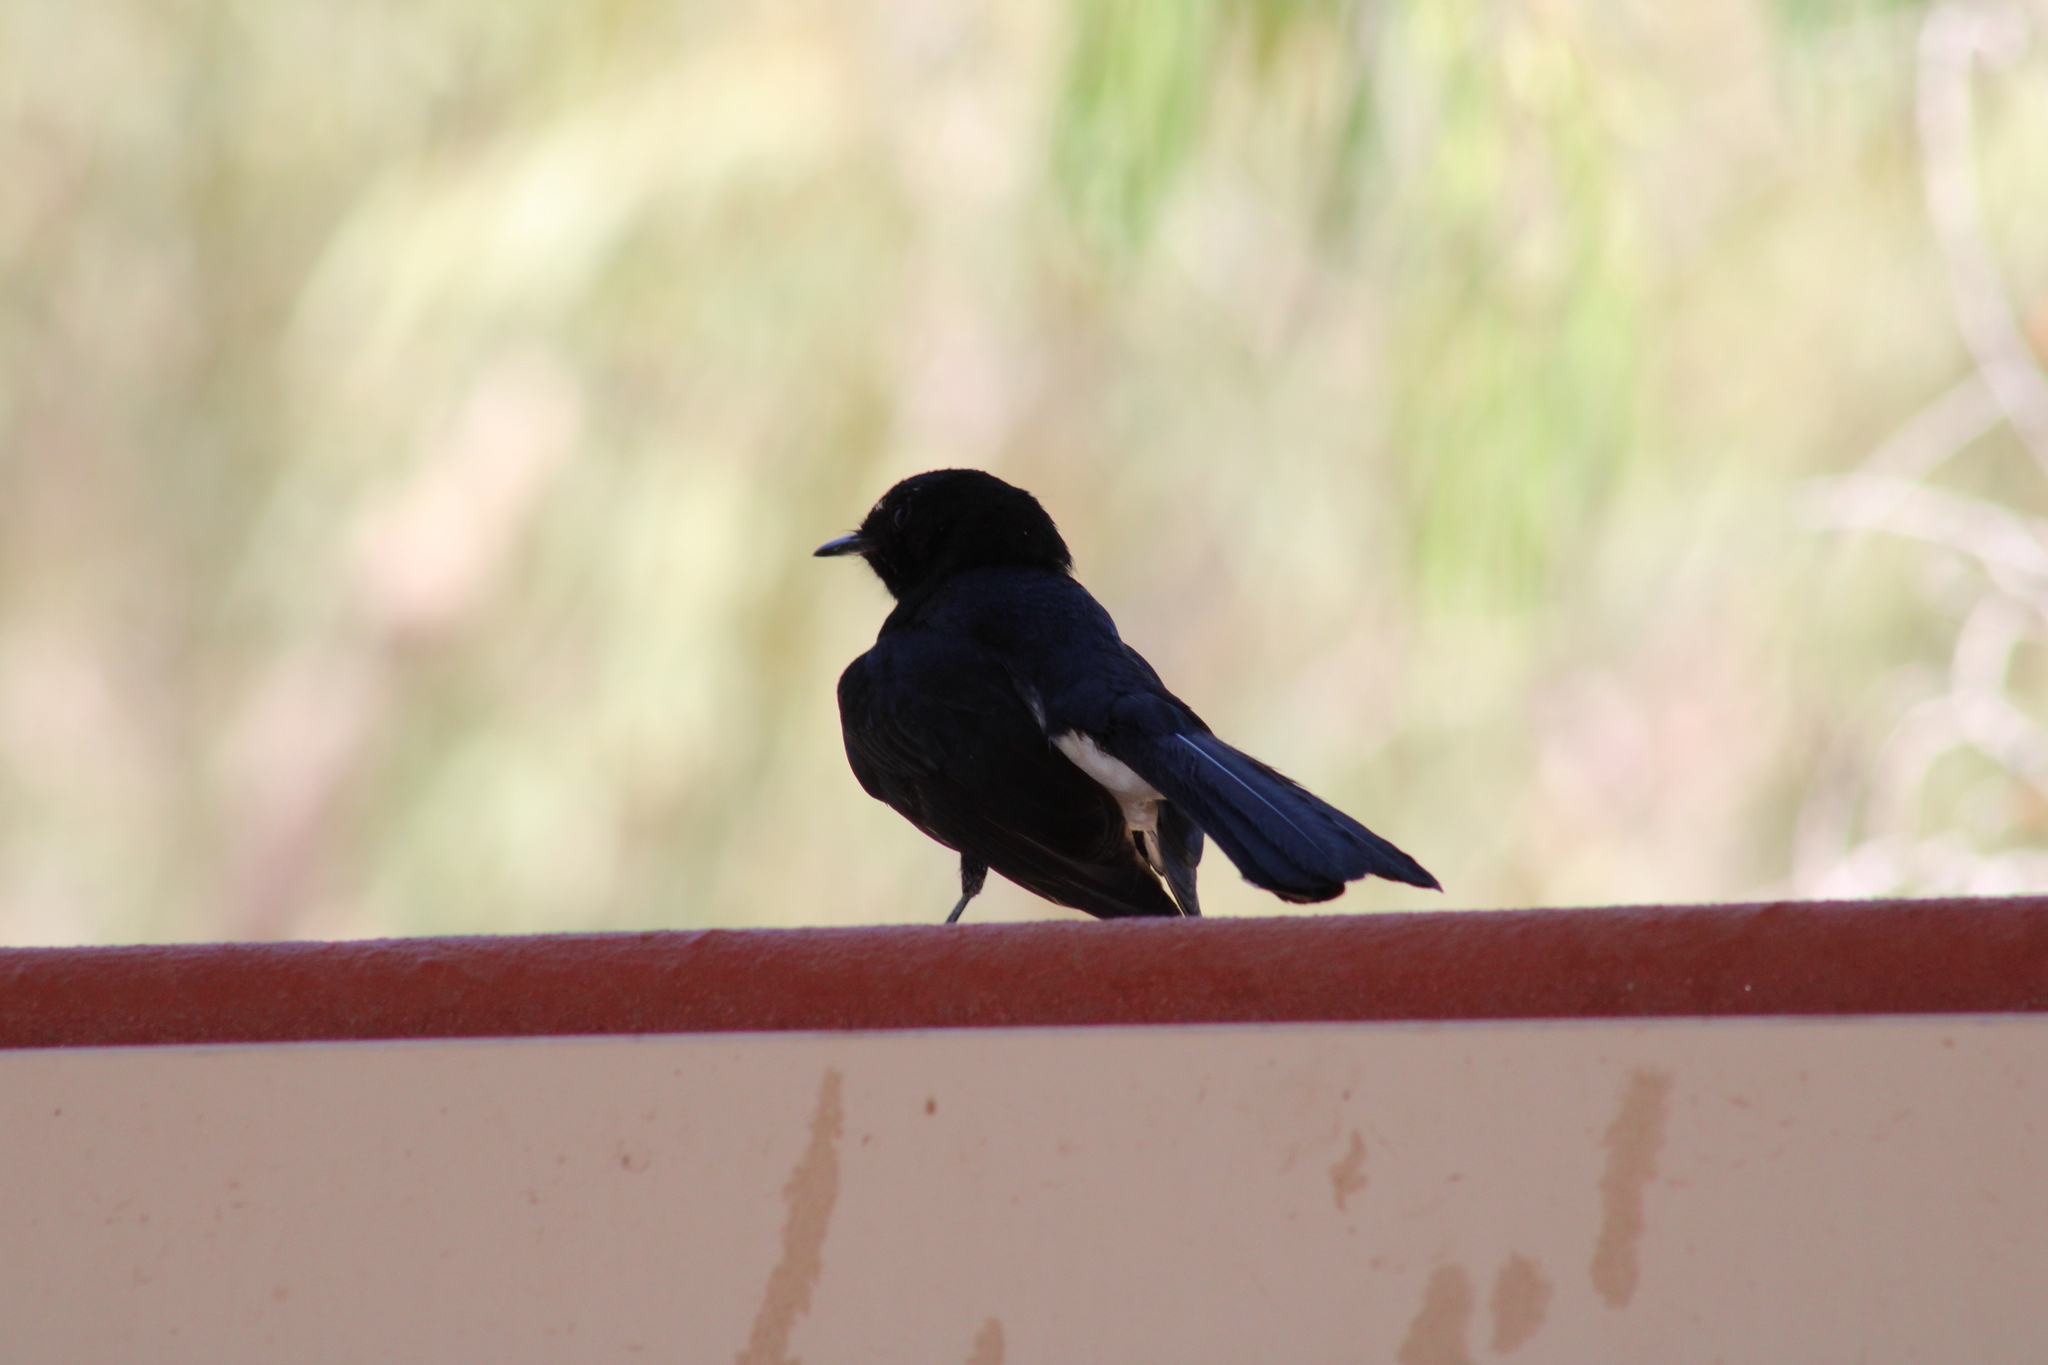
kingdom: Animalia
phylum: Chordata
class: Aves
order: Passeriformes
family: Rhipiduridae
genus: Rhipidura
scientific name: Rhipidura leucophrys
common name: Willie wagtail
